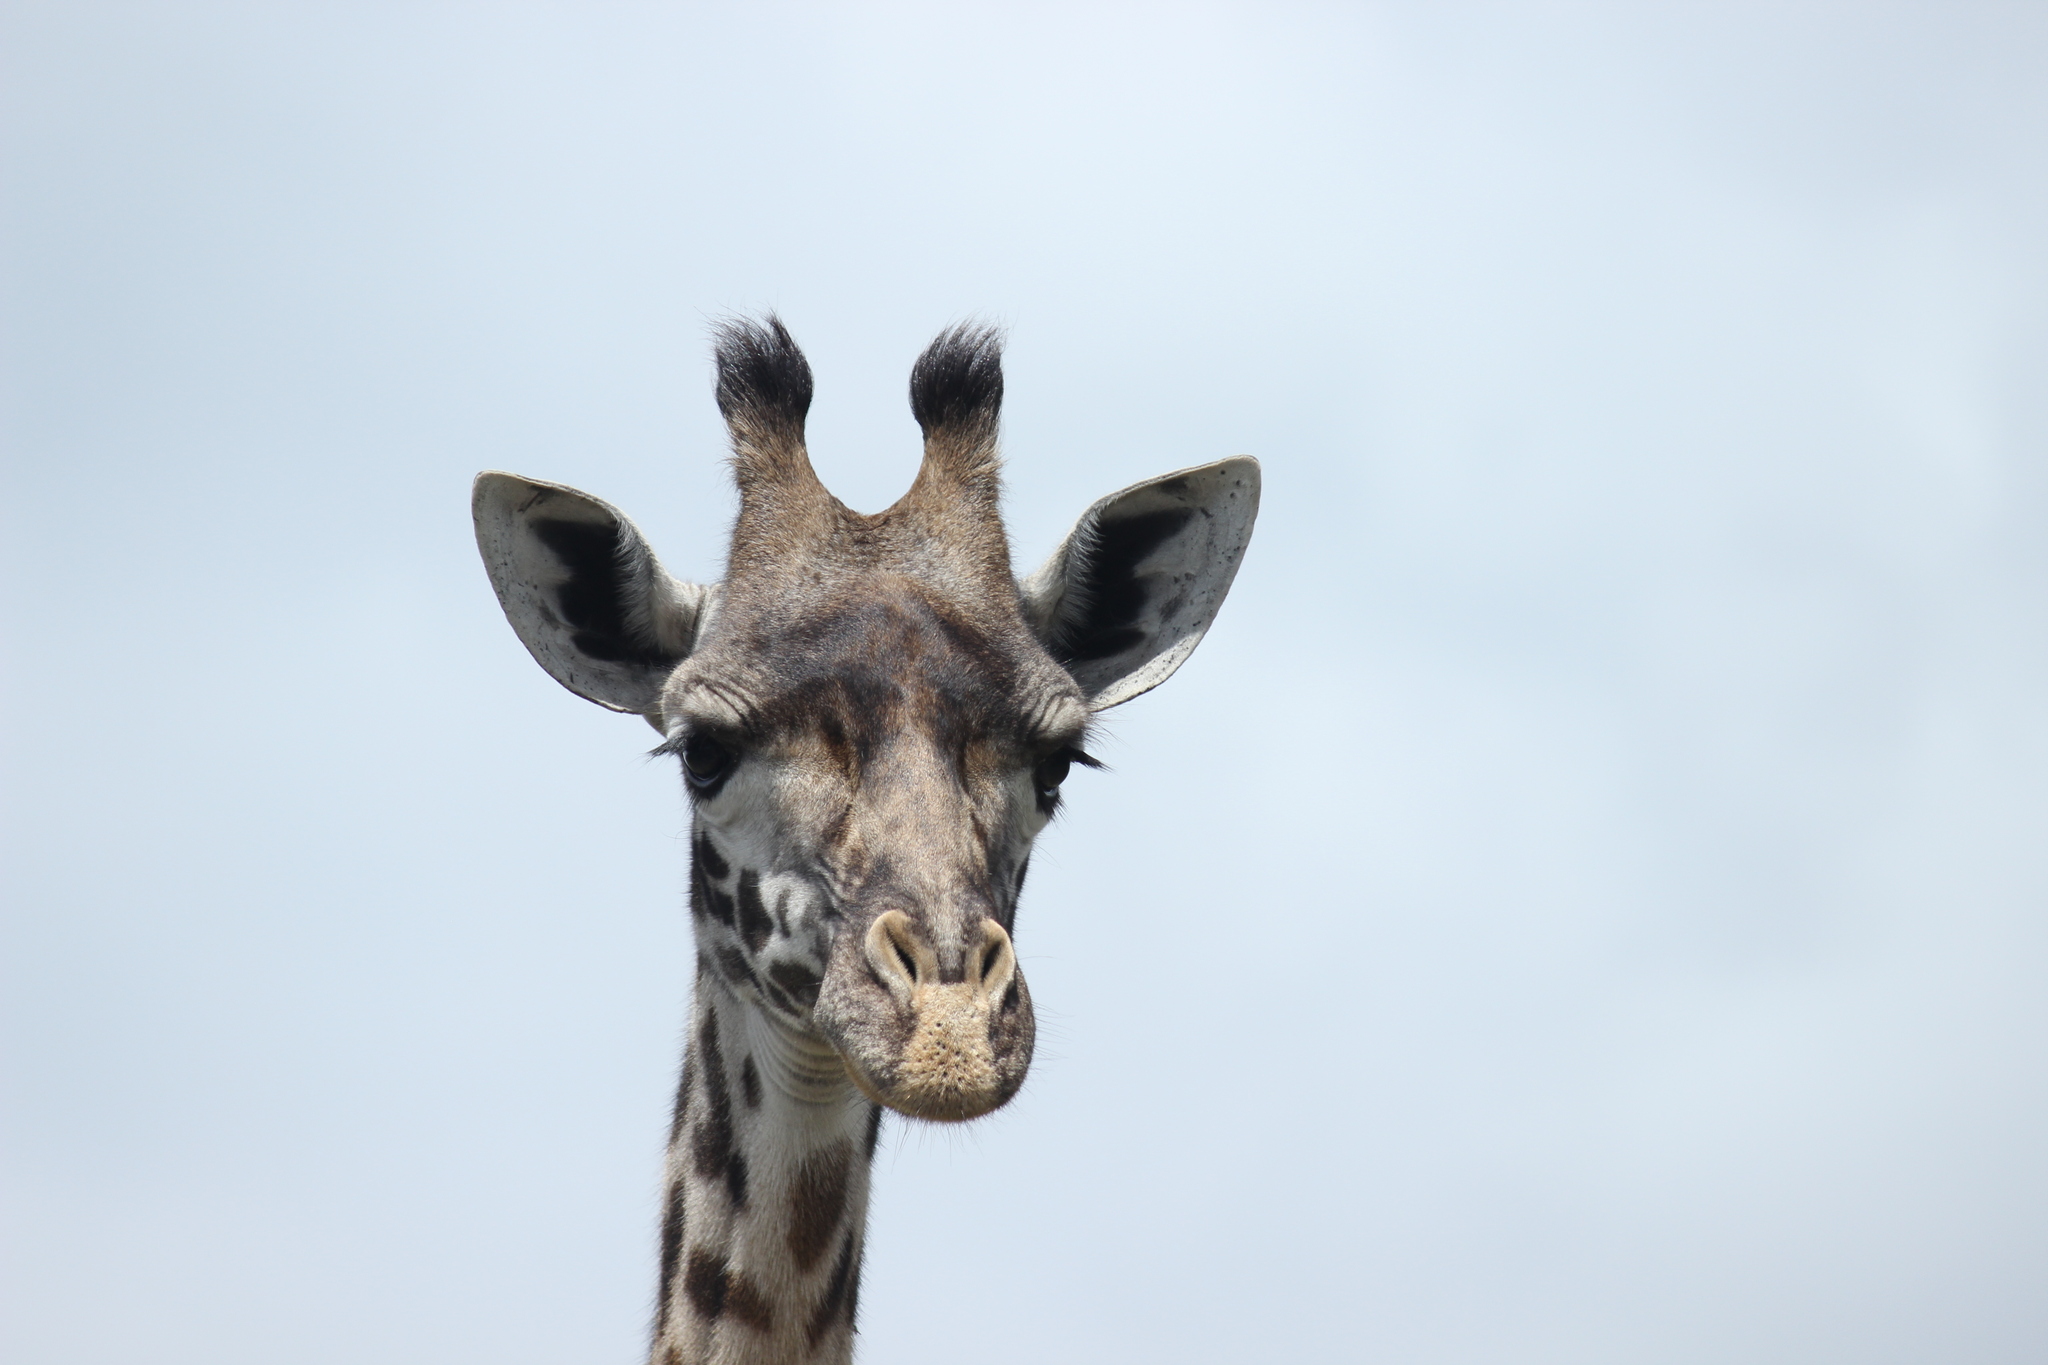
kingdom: Animalia
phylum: Chordata
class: Mammalia
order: Artiodactyla
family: Giraffidae
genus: Giraffa
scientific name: Giraffa tippelskirchi
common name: Masai giraffe
